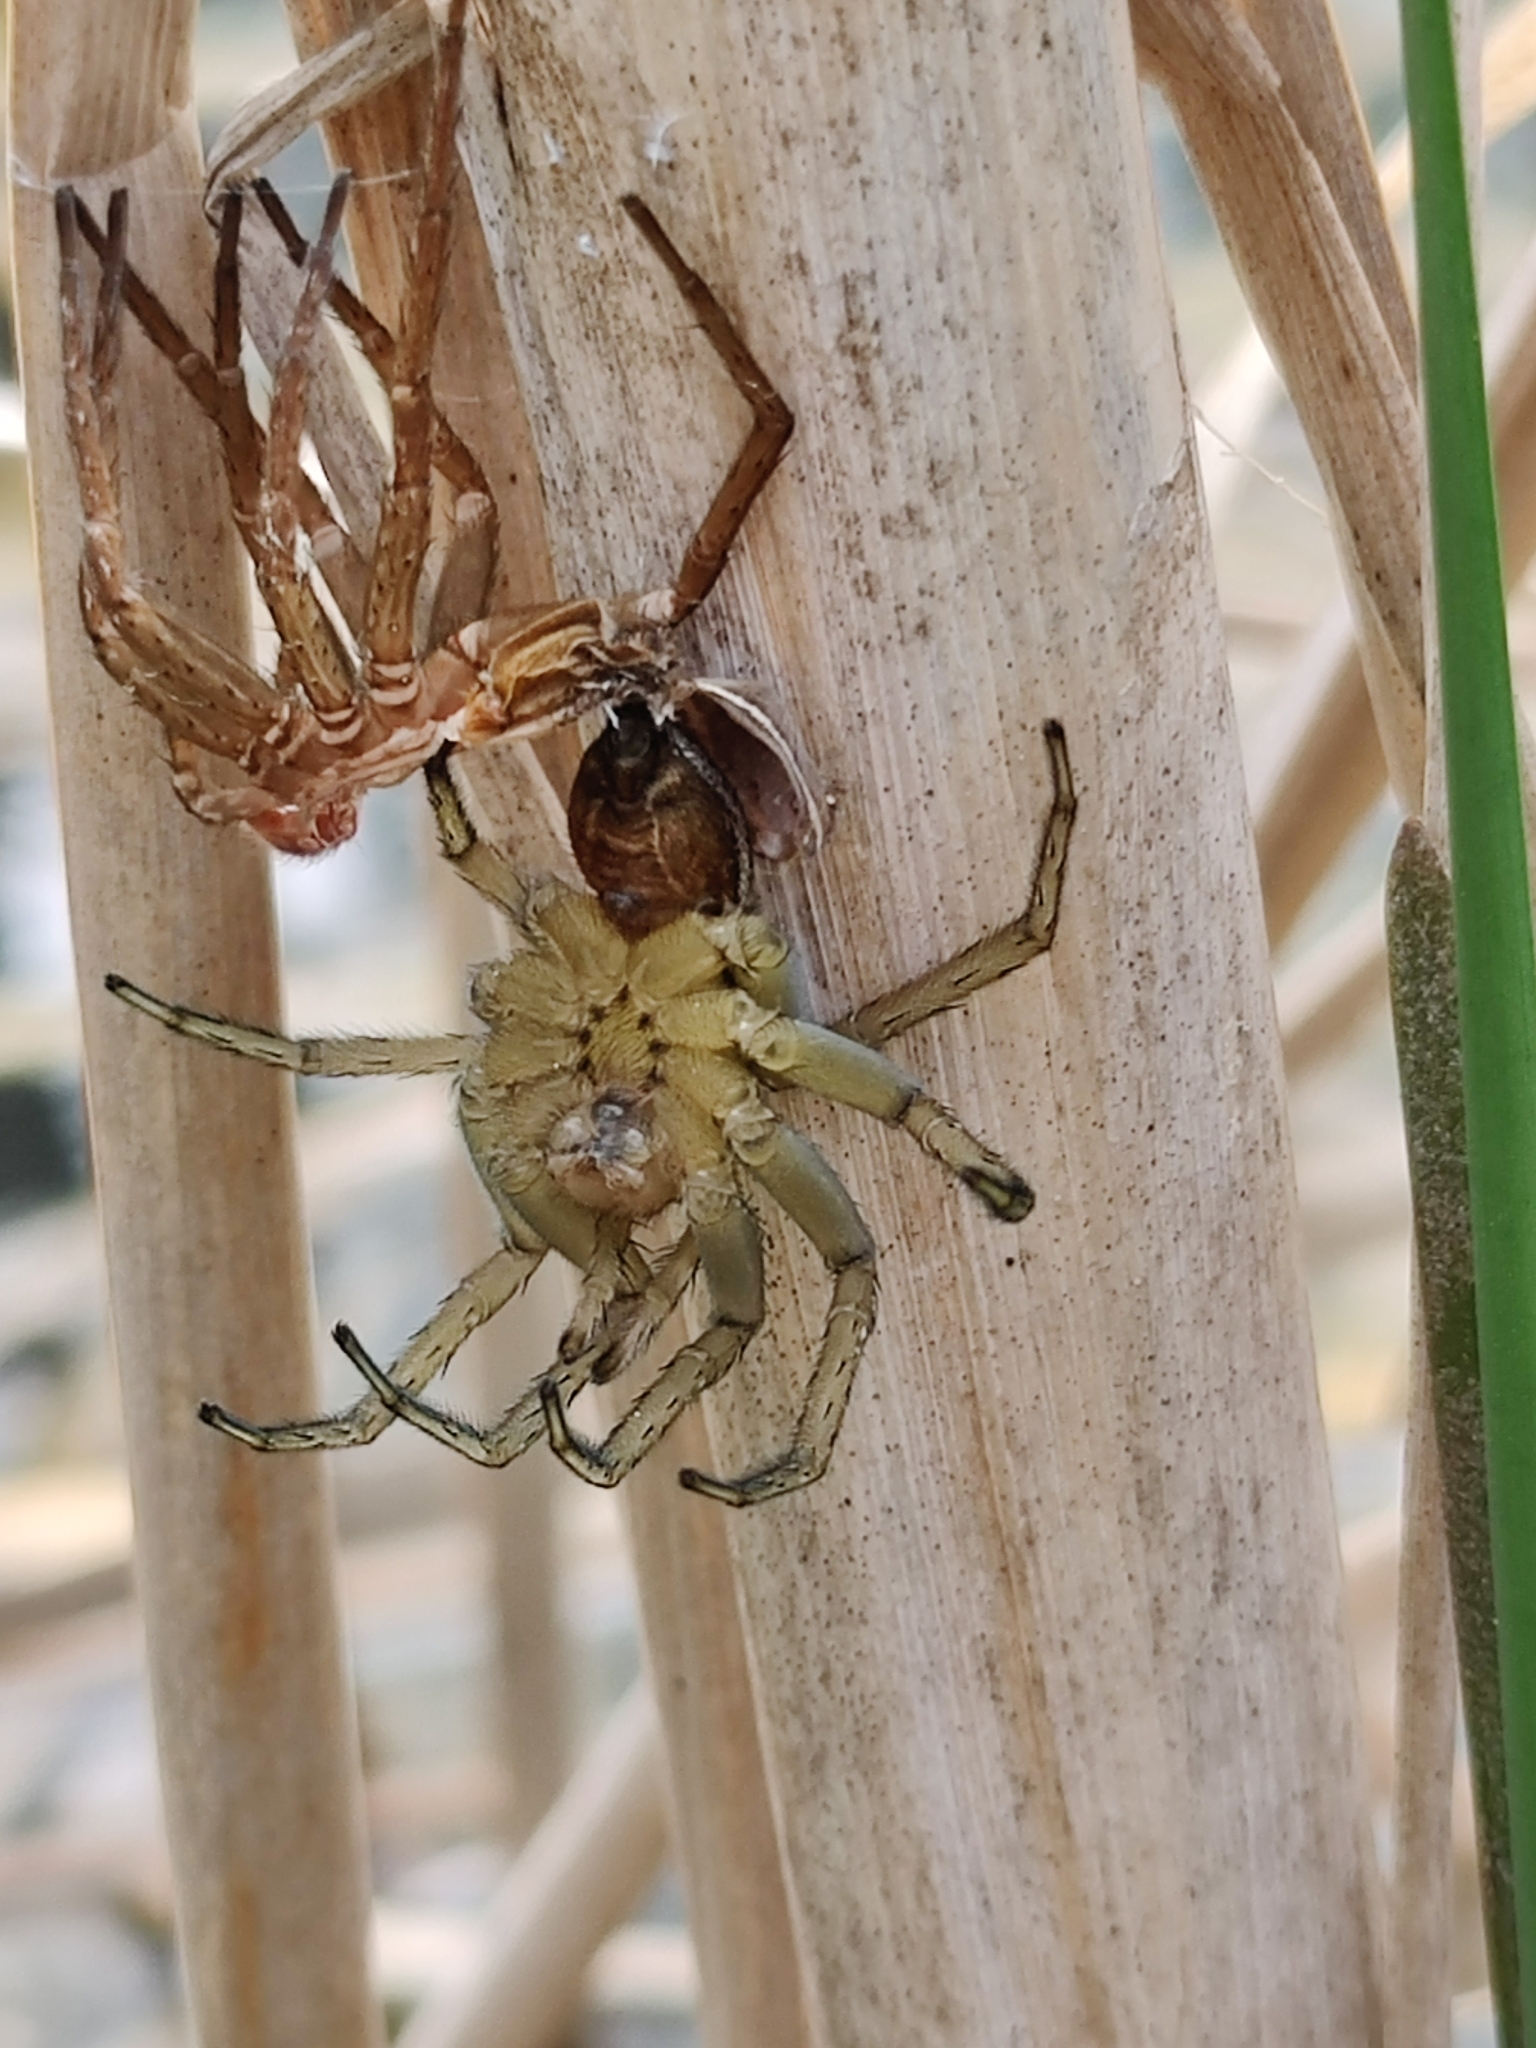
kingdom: Animalia
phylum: Arthropoda
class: Arachnida
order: Araneae
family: Pisauridae
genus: Dolomedes
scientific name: Dolomedes triton
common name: Six-spotted fishing spider
